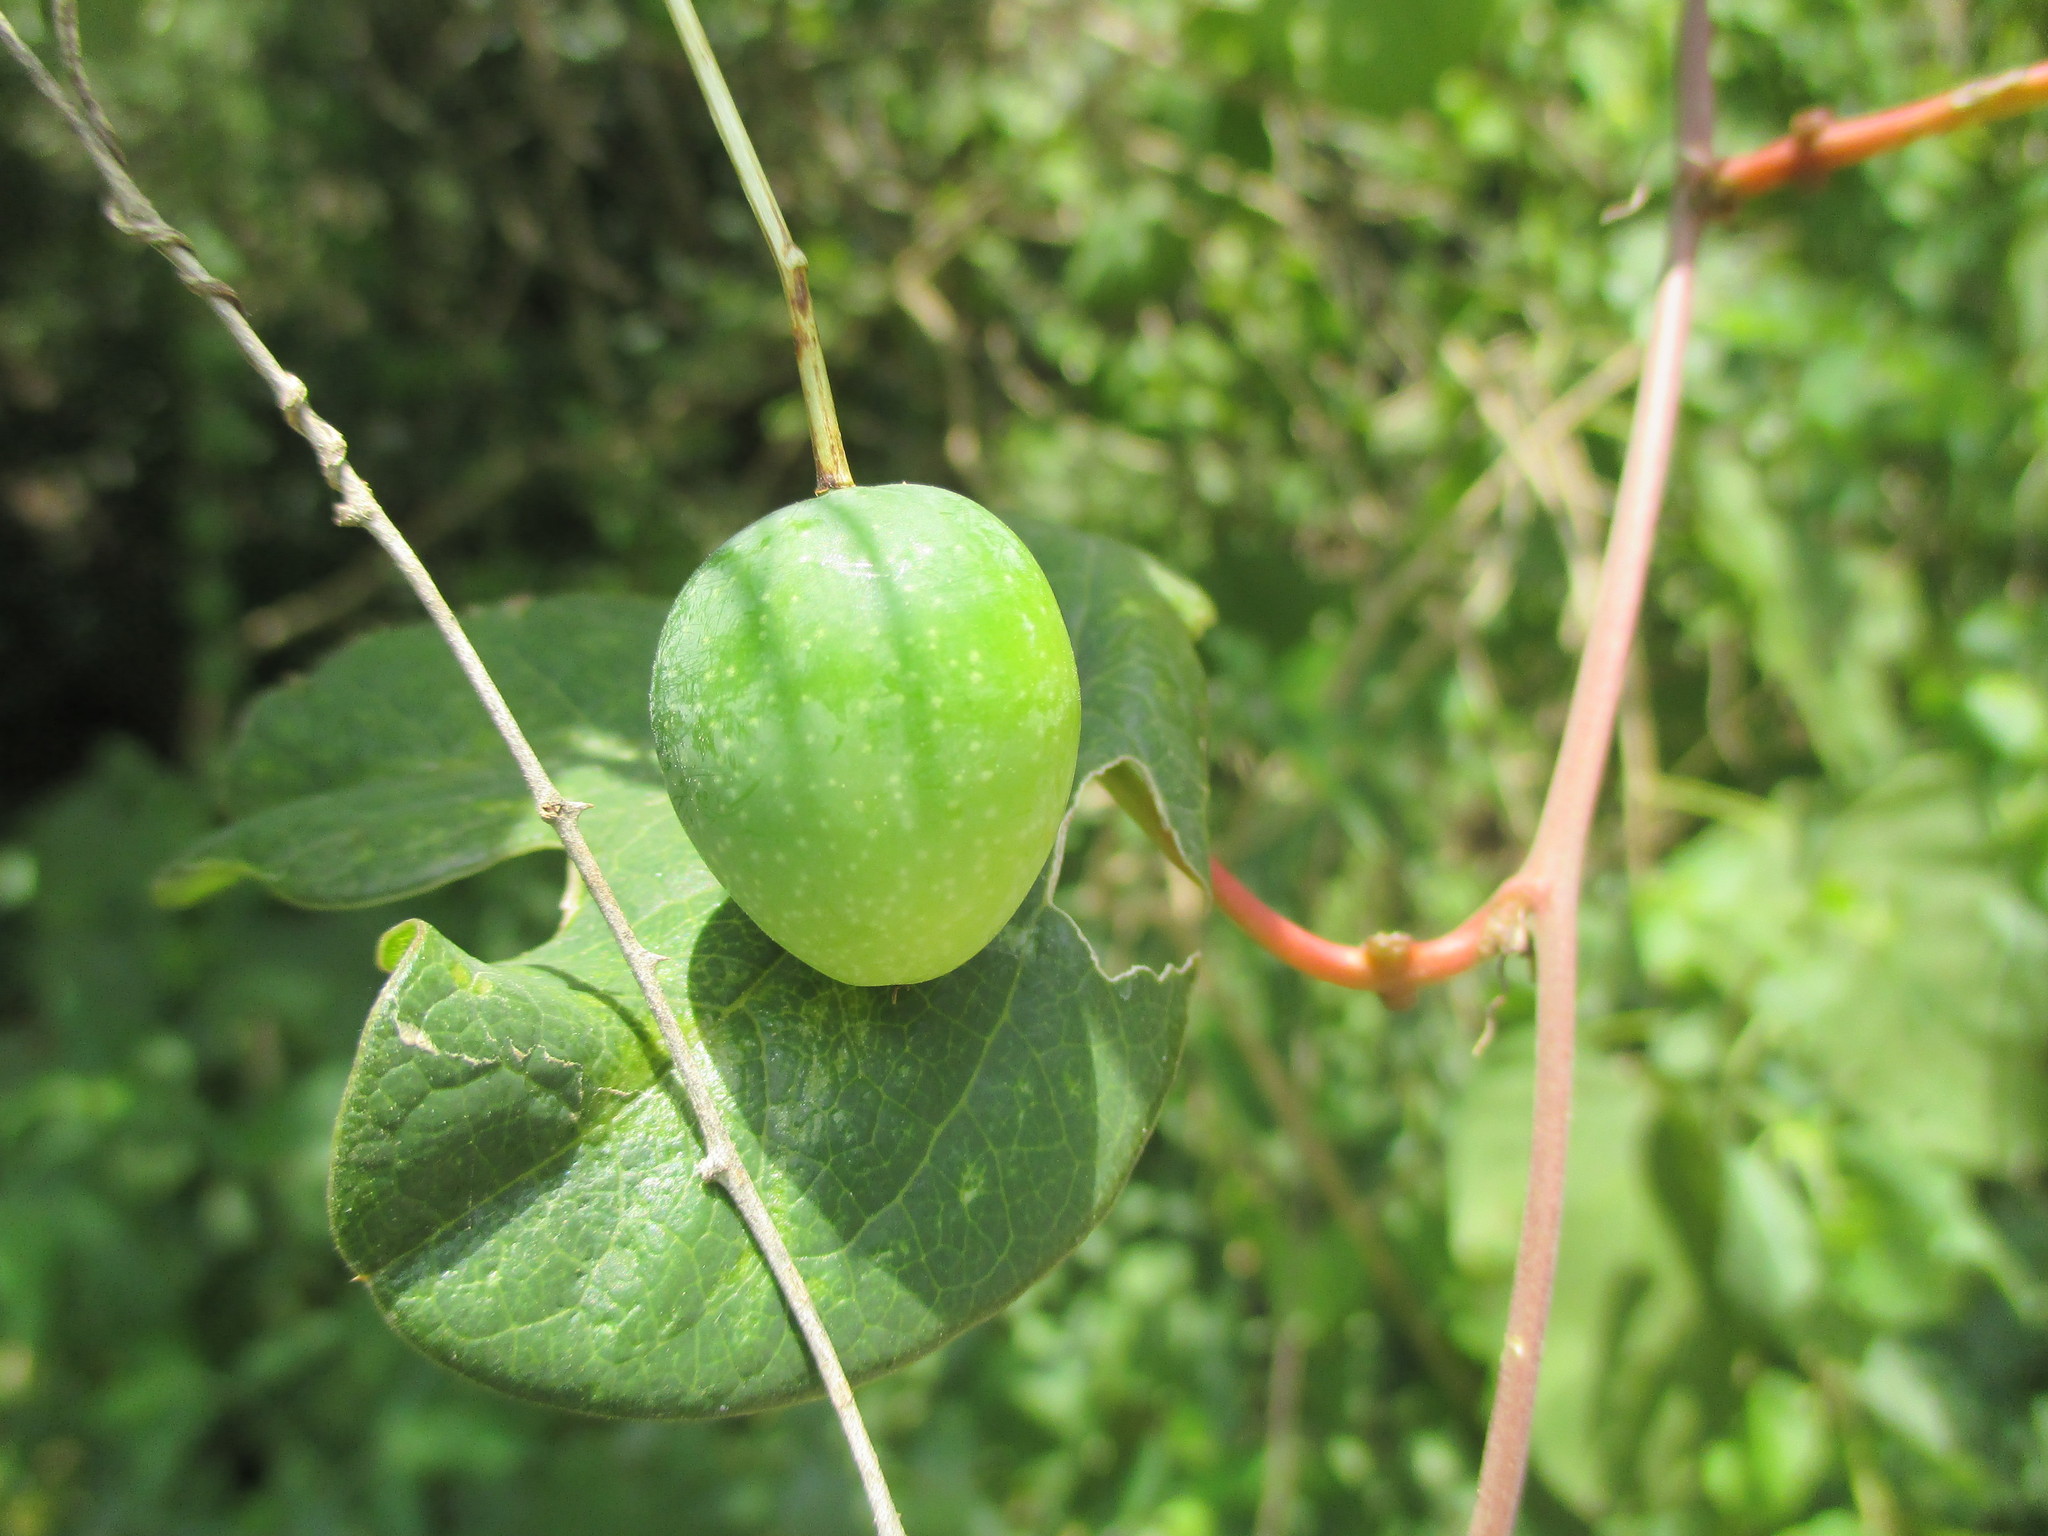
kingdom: Plantae
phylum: Tracheophyta
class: Magnoliopsida
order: Malpighiales
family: Passifloraceae
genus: Passiflora
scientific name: Passiflora viridiflora
